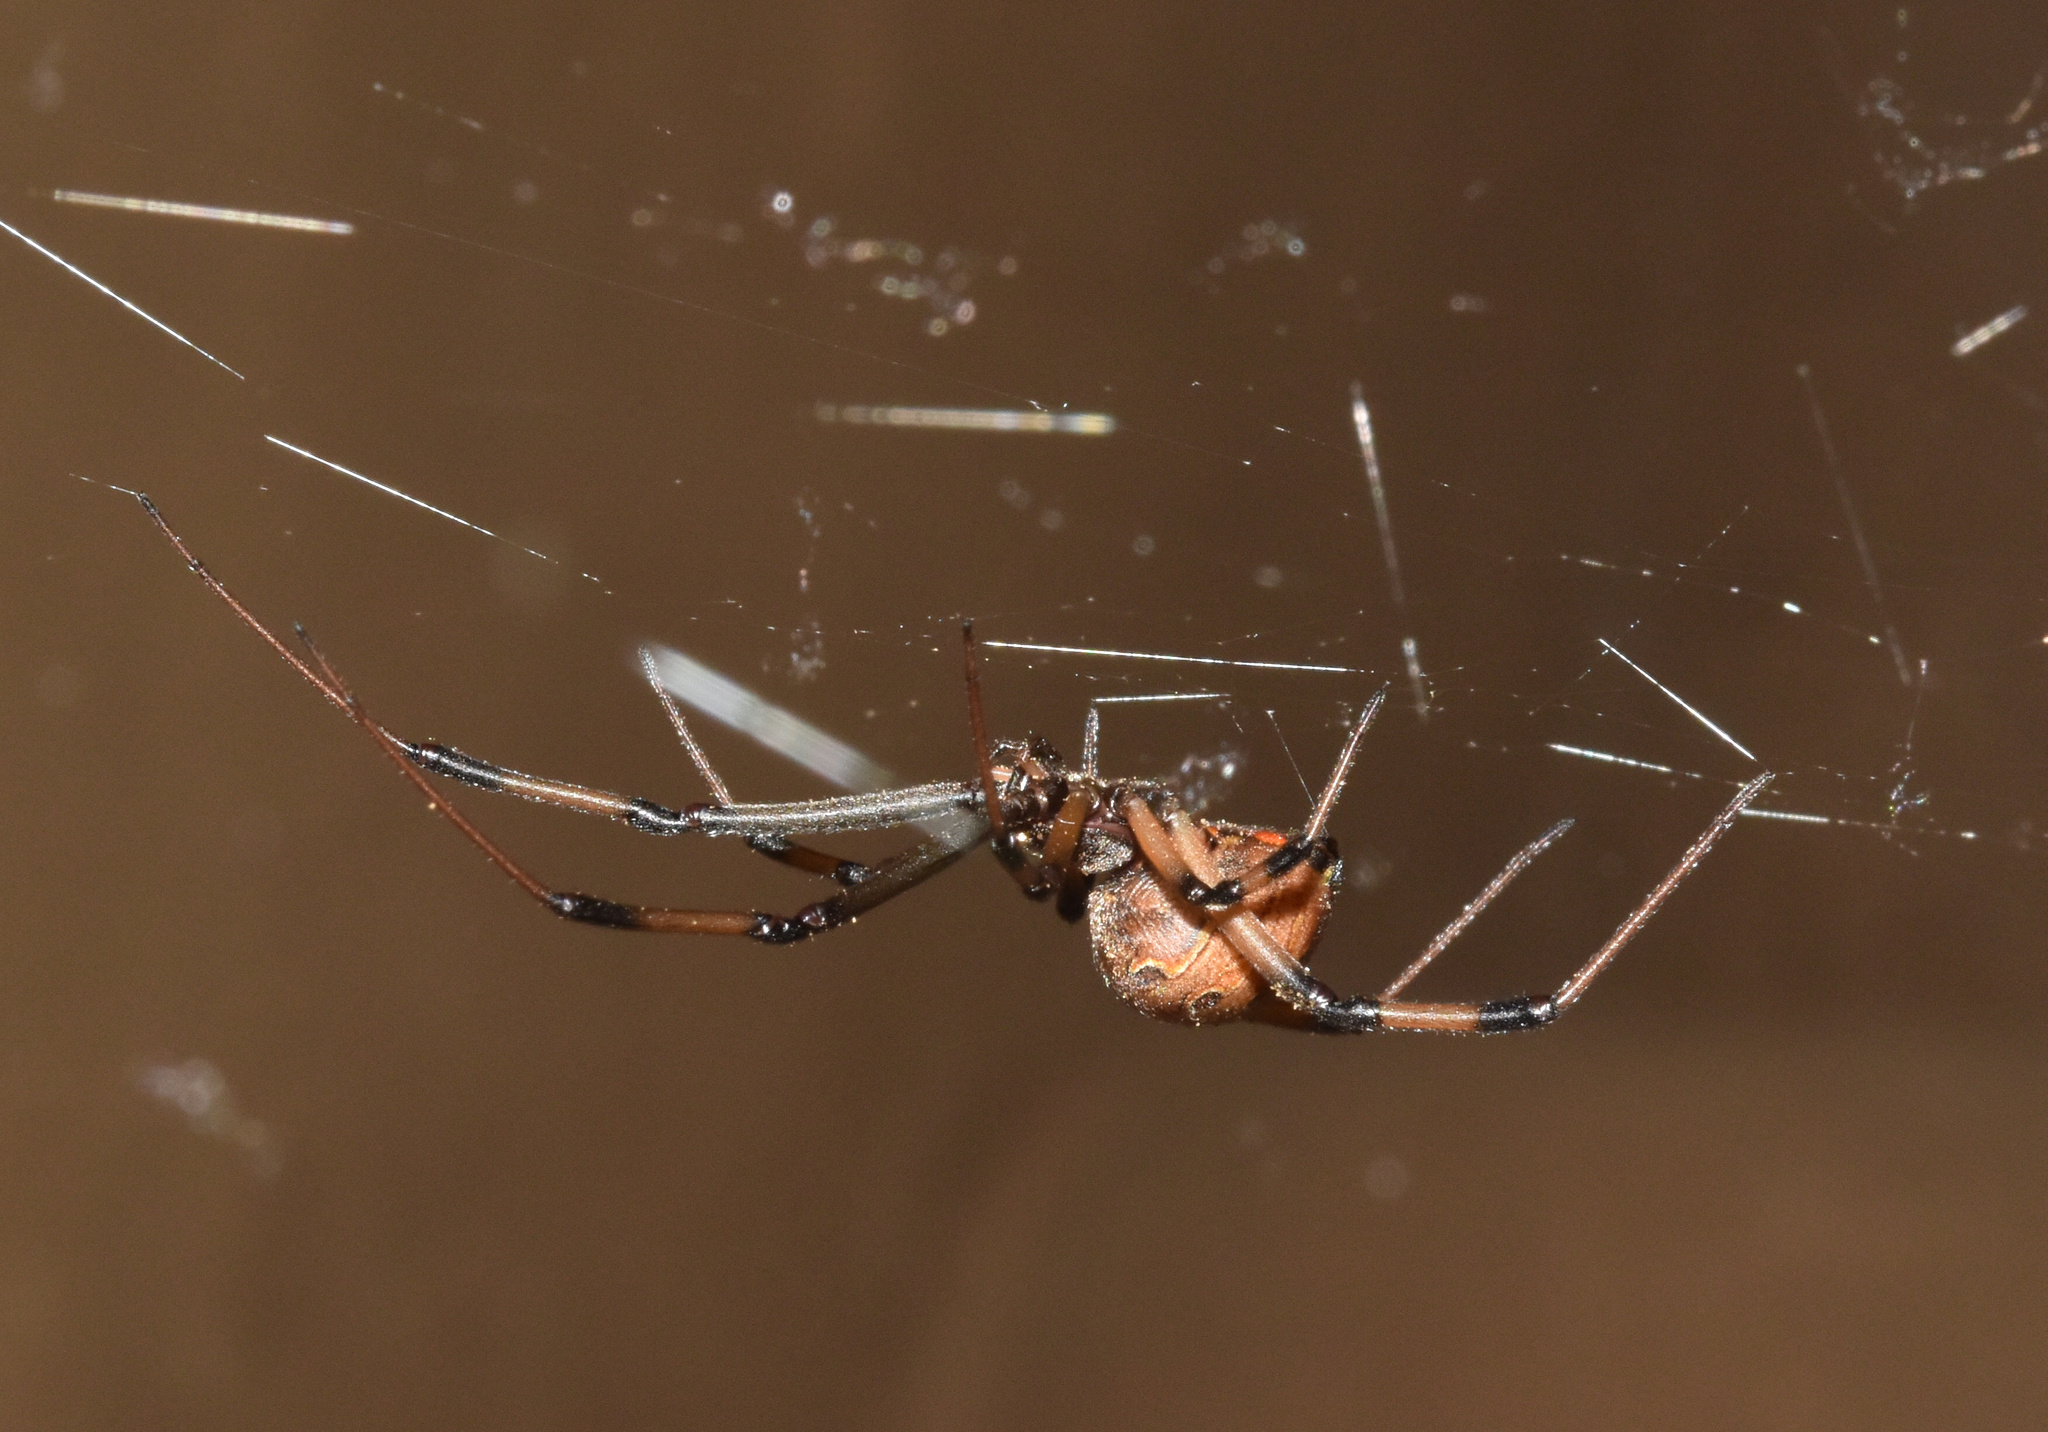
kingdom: Animalia
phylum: Arthropoda
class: Arachnida
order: Araneae
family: Theridiidae
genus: Latrodectus
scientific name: Latrodectus geometricus
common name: Brown widow spider
